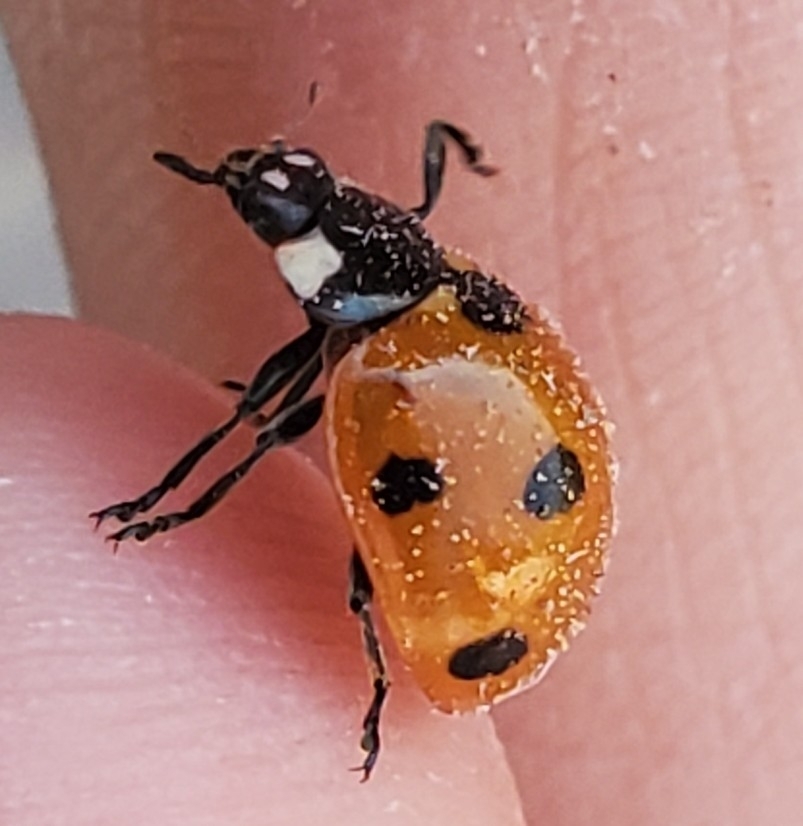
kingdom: Animalia
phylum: Arthropoda
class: Insecta
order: Coleoptera
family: Coccinellidae
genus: Coccinella
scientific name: Coccinella septempunctata
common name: Sevenspotted lady beetle
